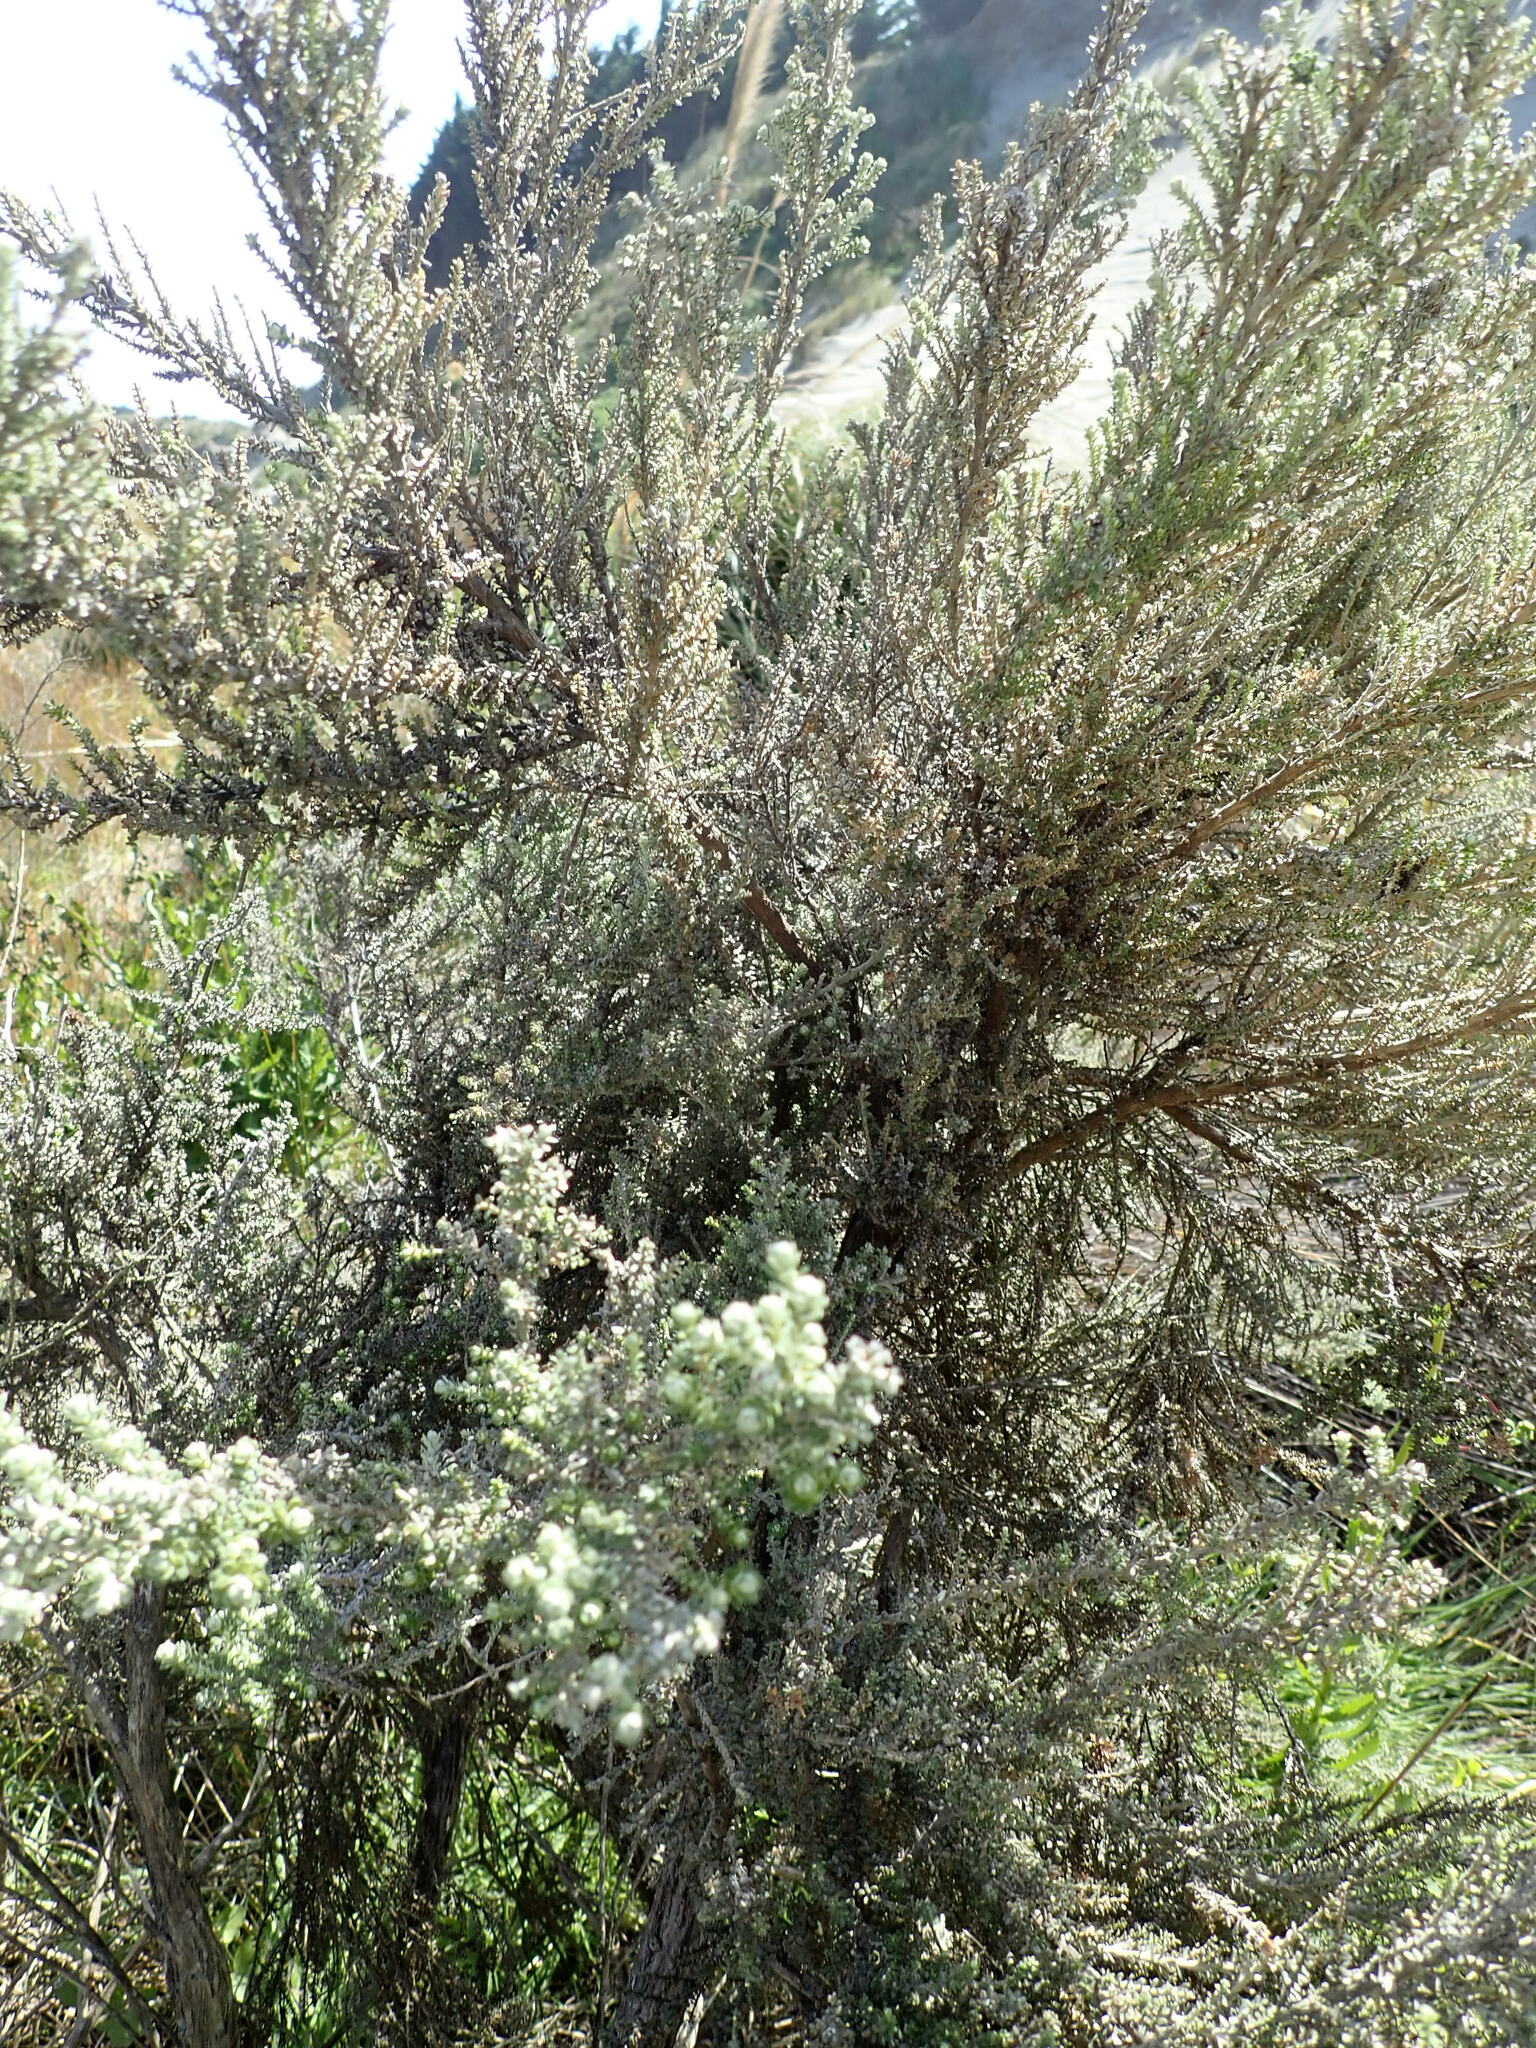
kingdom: Plantae
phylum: Tracheophyta
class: Magnoliopsida
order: Asterales
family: Asteraceae
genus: Ozothamnus
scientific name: Ozothamnus leptophyllus
